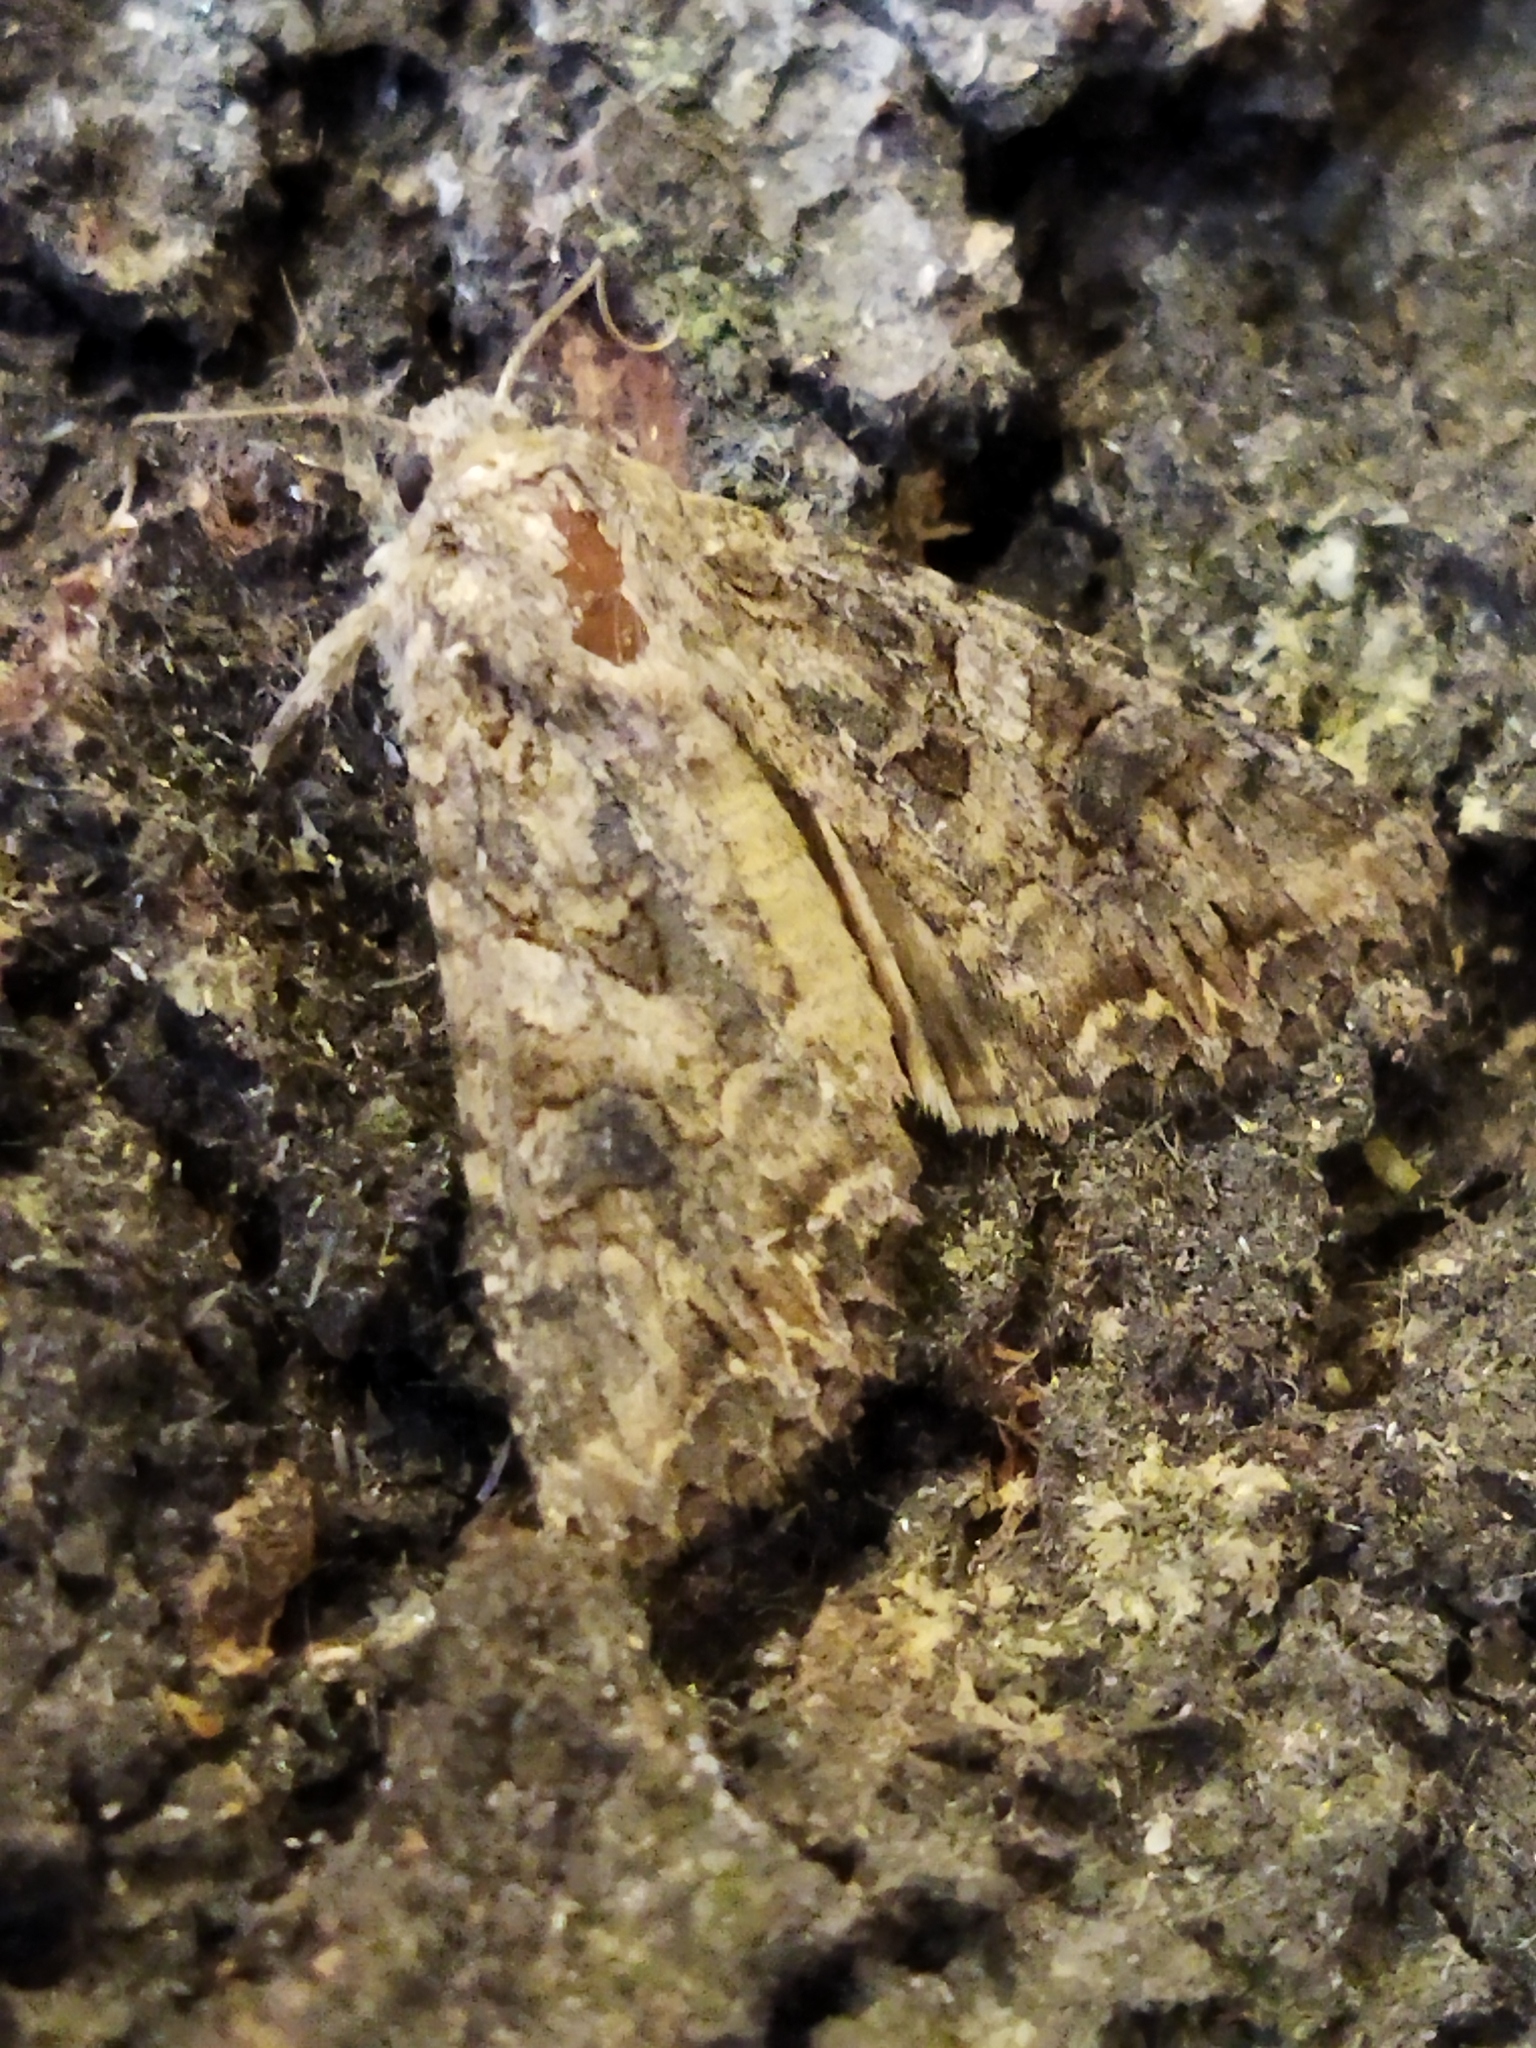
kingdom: Animalia
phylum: Arthropoda
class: Insecta
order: Lepidoptera
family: Noctuidae
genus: Anarta
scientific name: Anarta trifolii
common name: Clover cutworm moth
